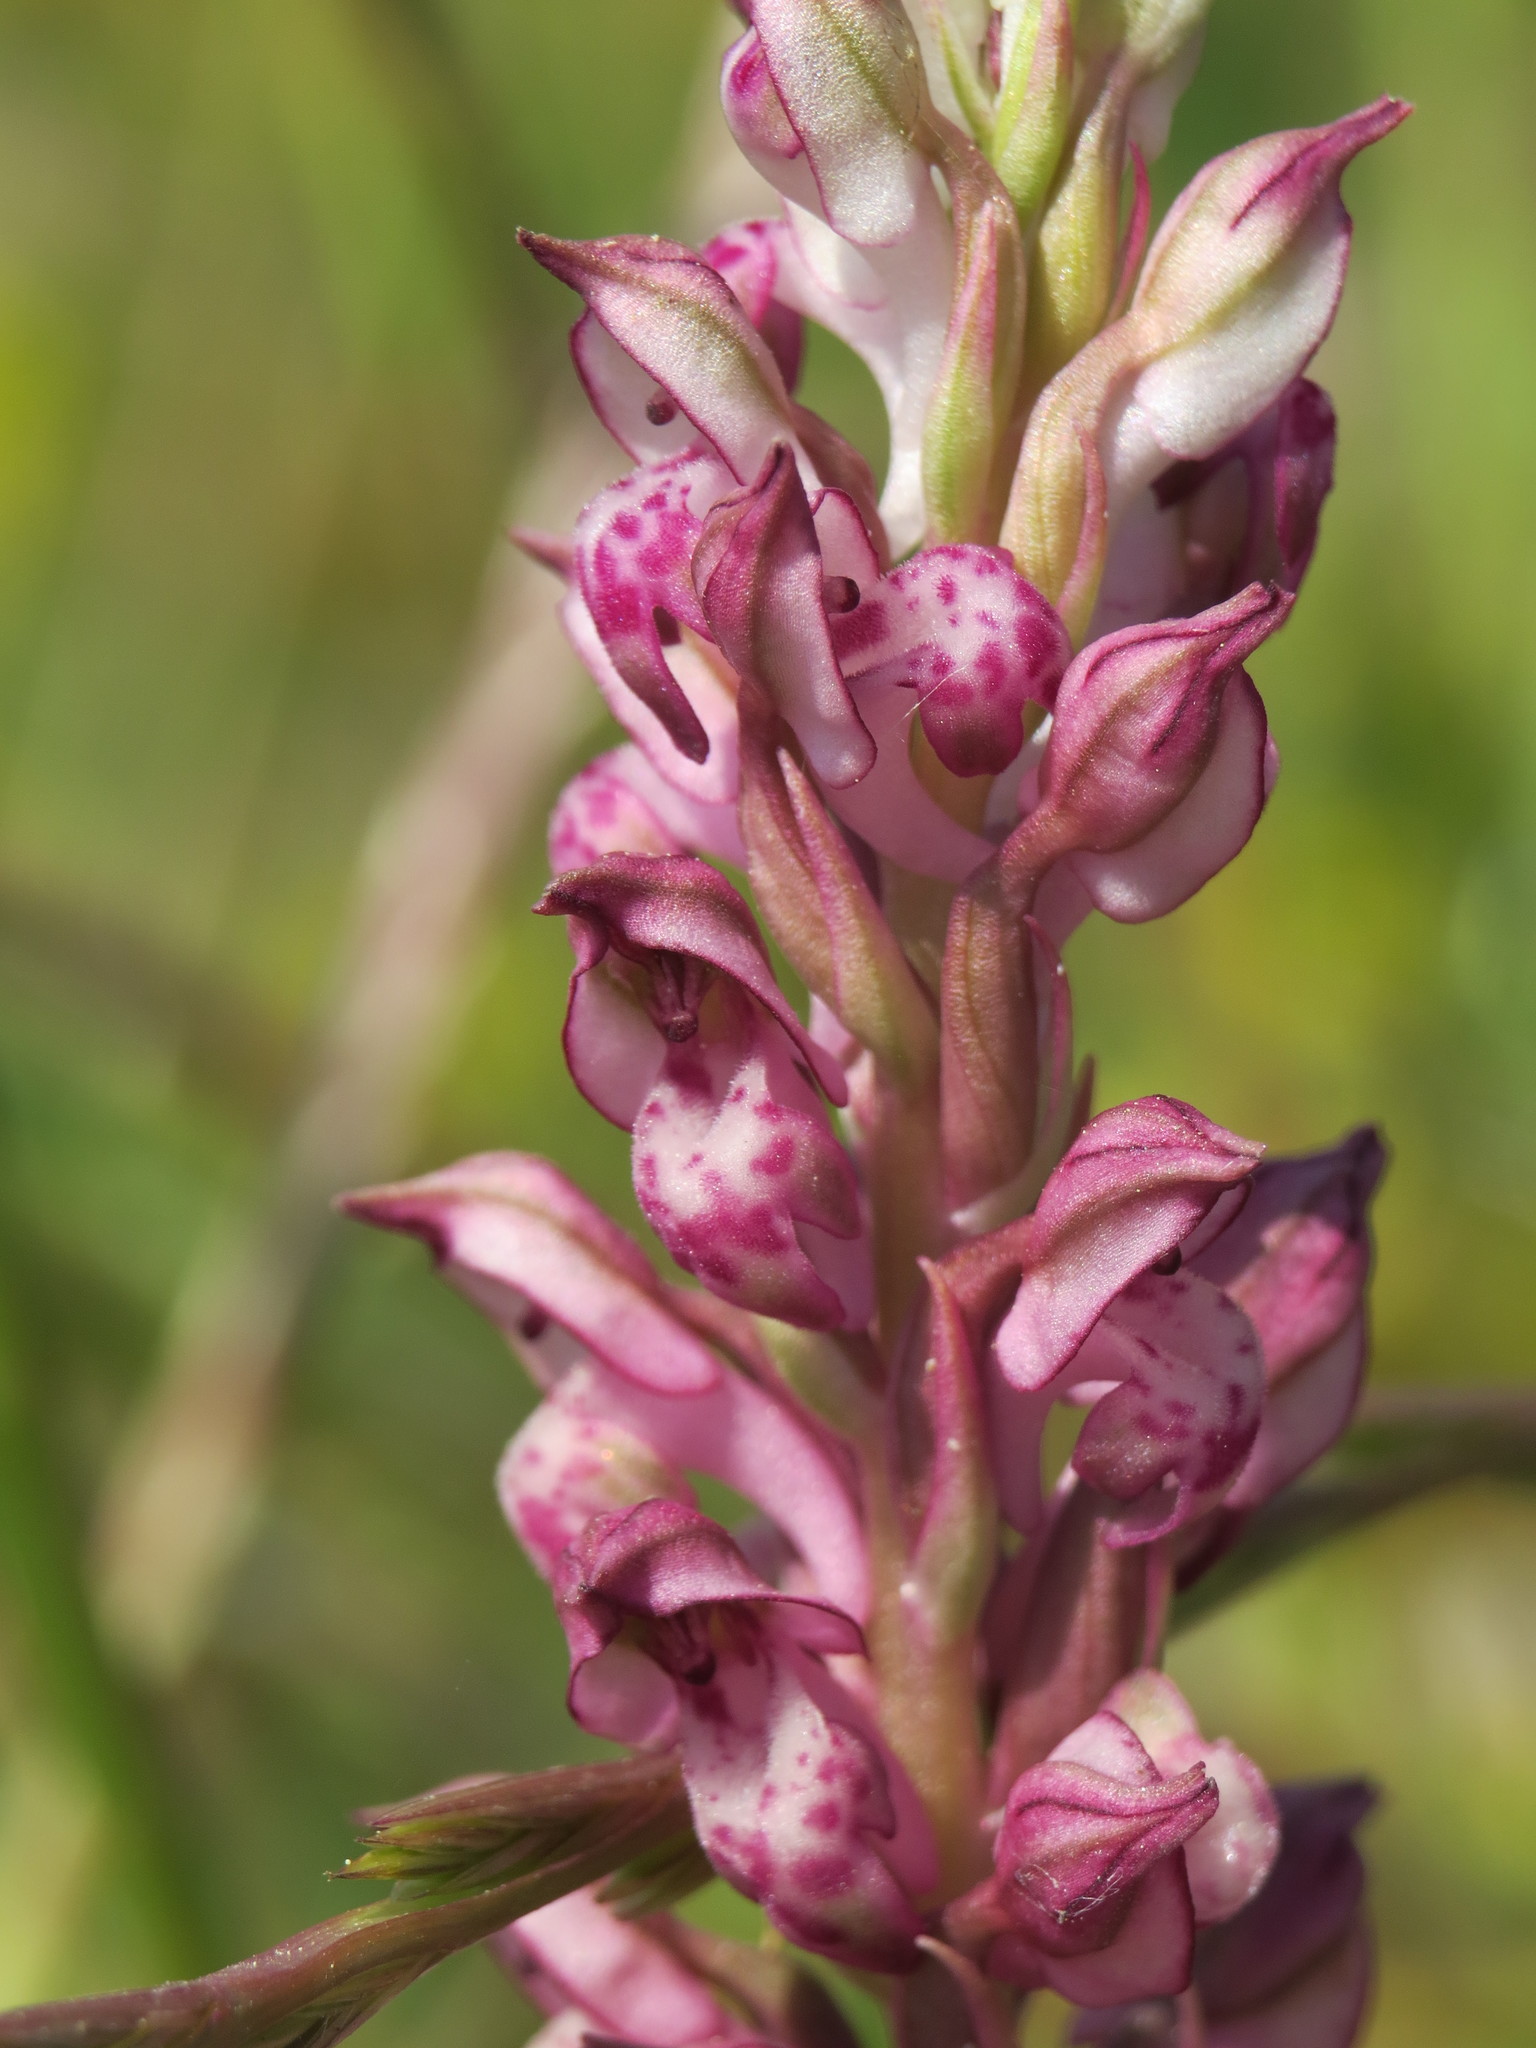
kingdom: Plantae
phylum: Tracheophyta
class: Liliopsida
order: Asparagales
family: Orchidaceae
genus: Anacamptis
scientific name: Anacamptis coriophora
